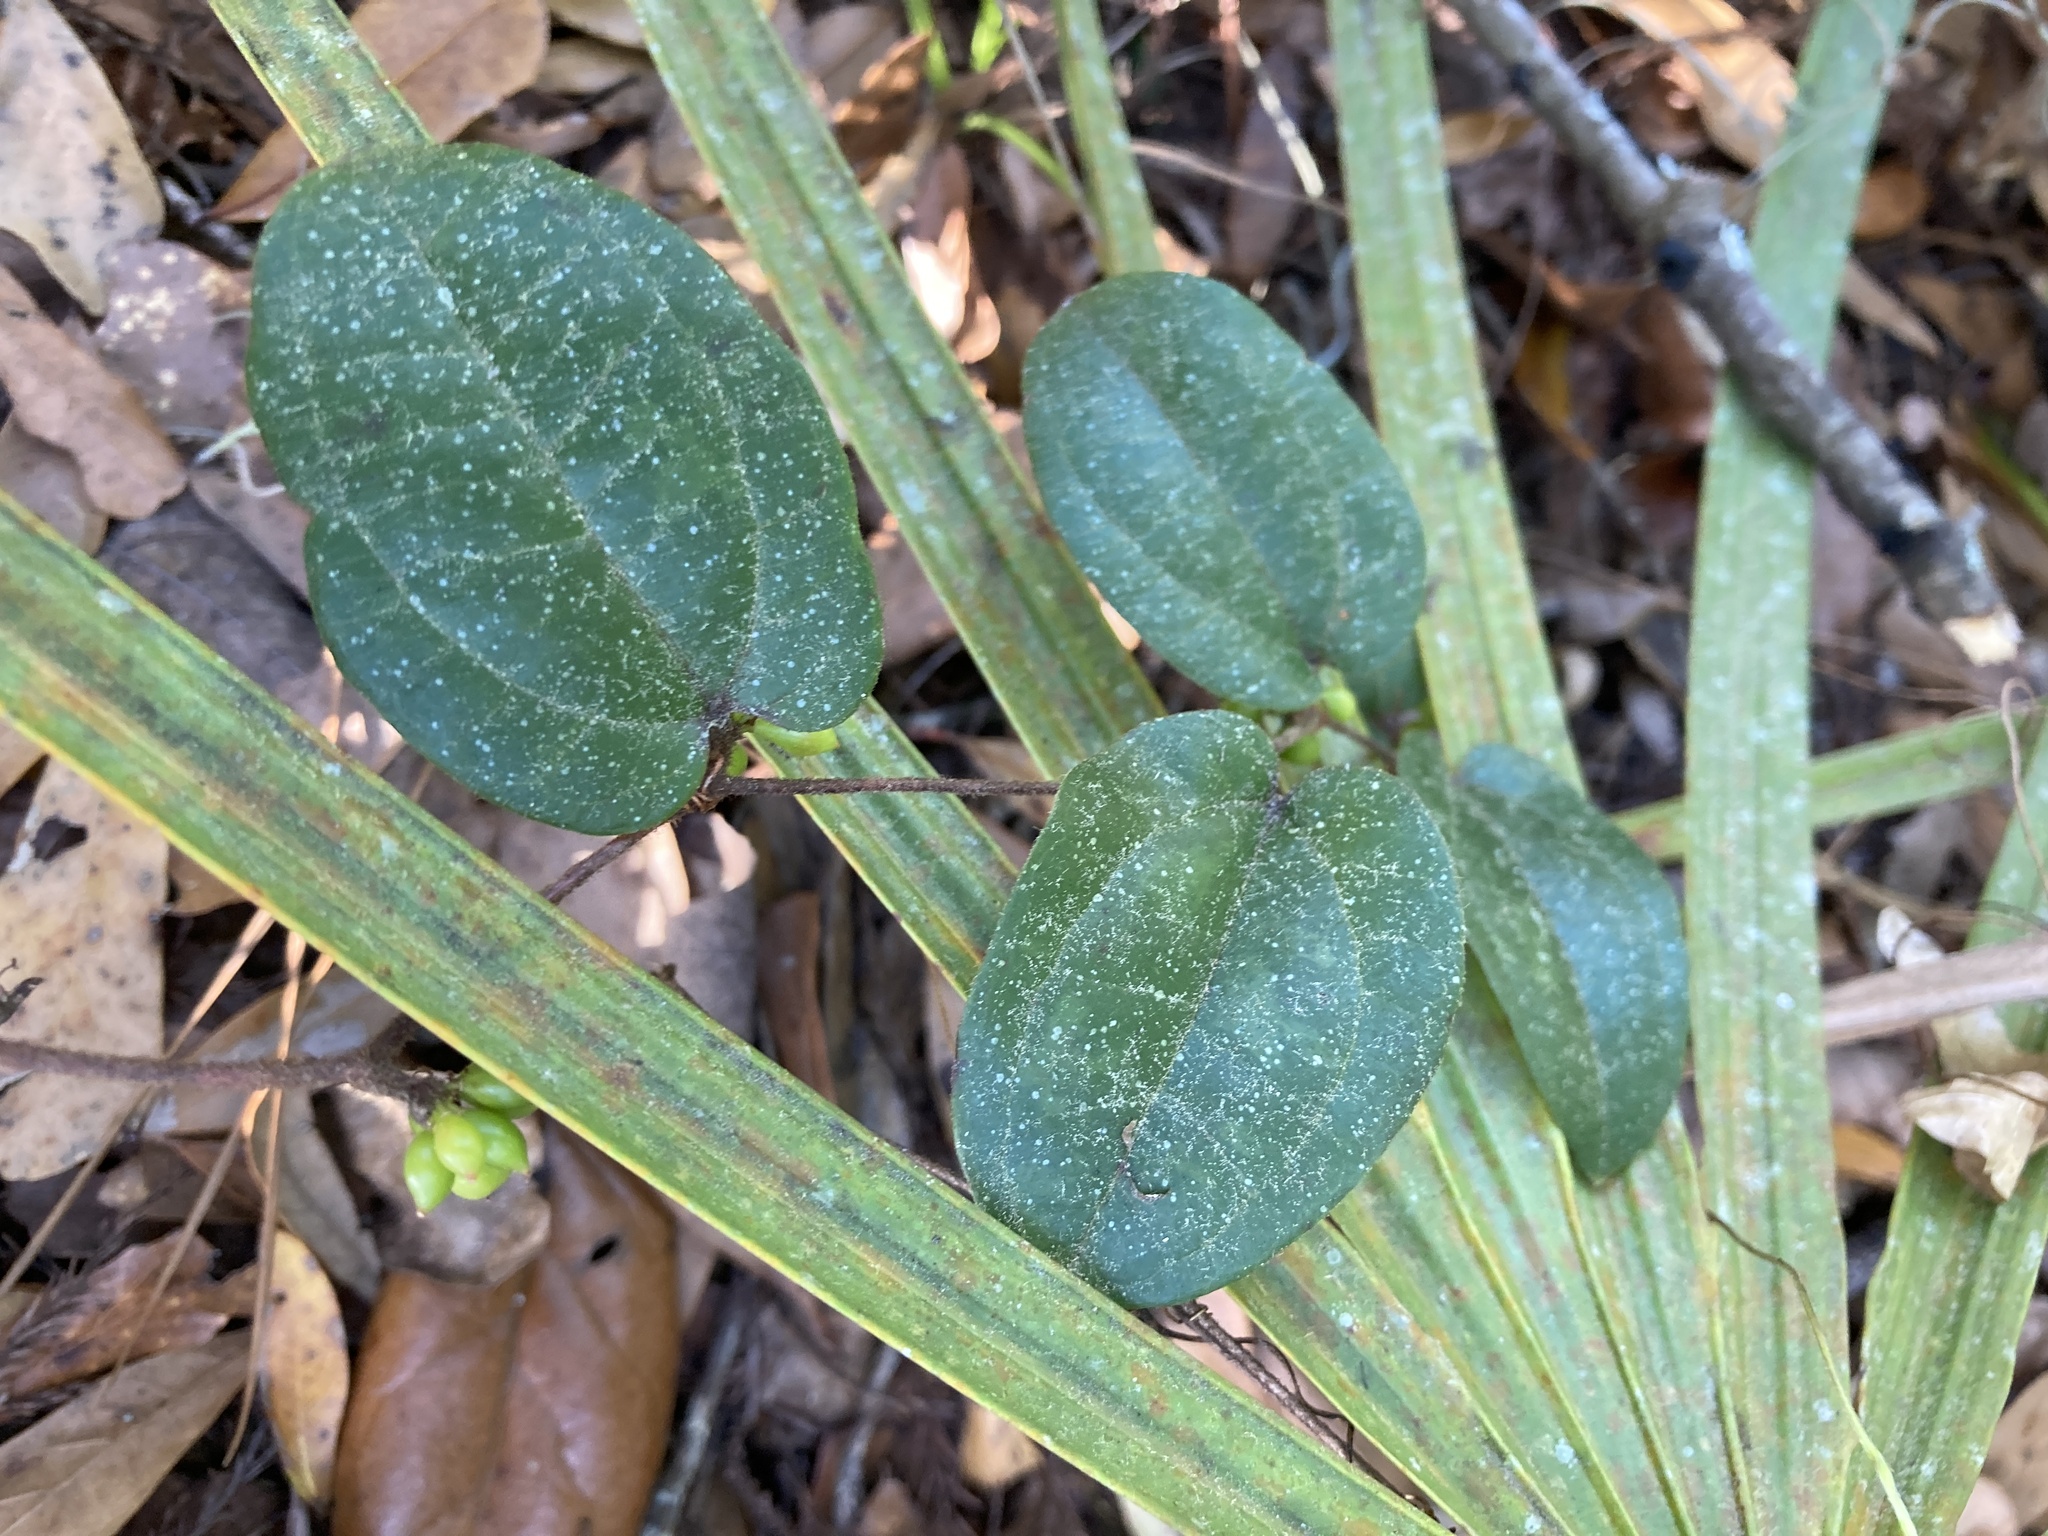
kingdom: Plantae
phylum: Tracheophyta
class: Liliopsida
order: Liliales
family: Smilacaceae
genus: Smilax
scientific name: Smilax pumila
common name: Sarsaparilla-vine
